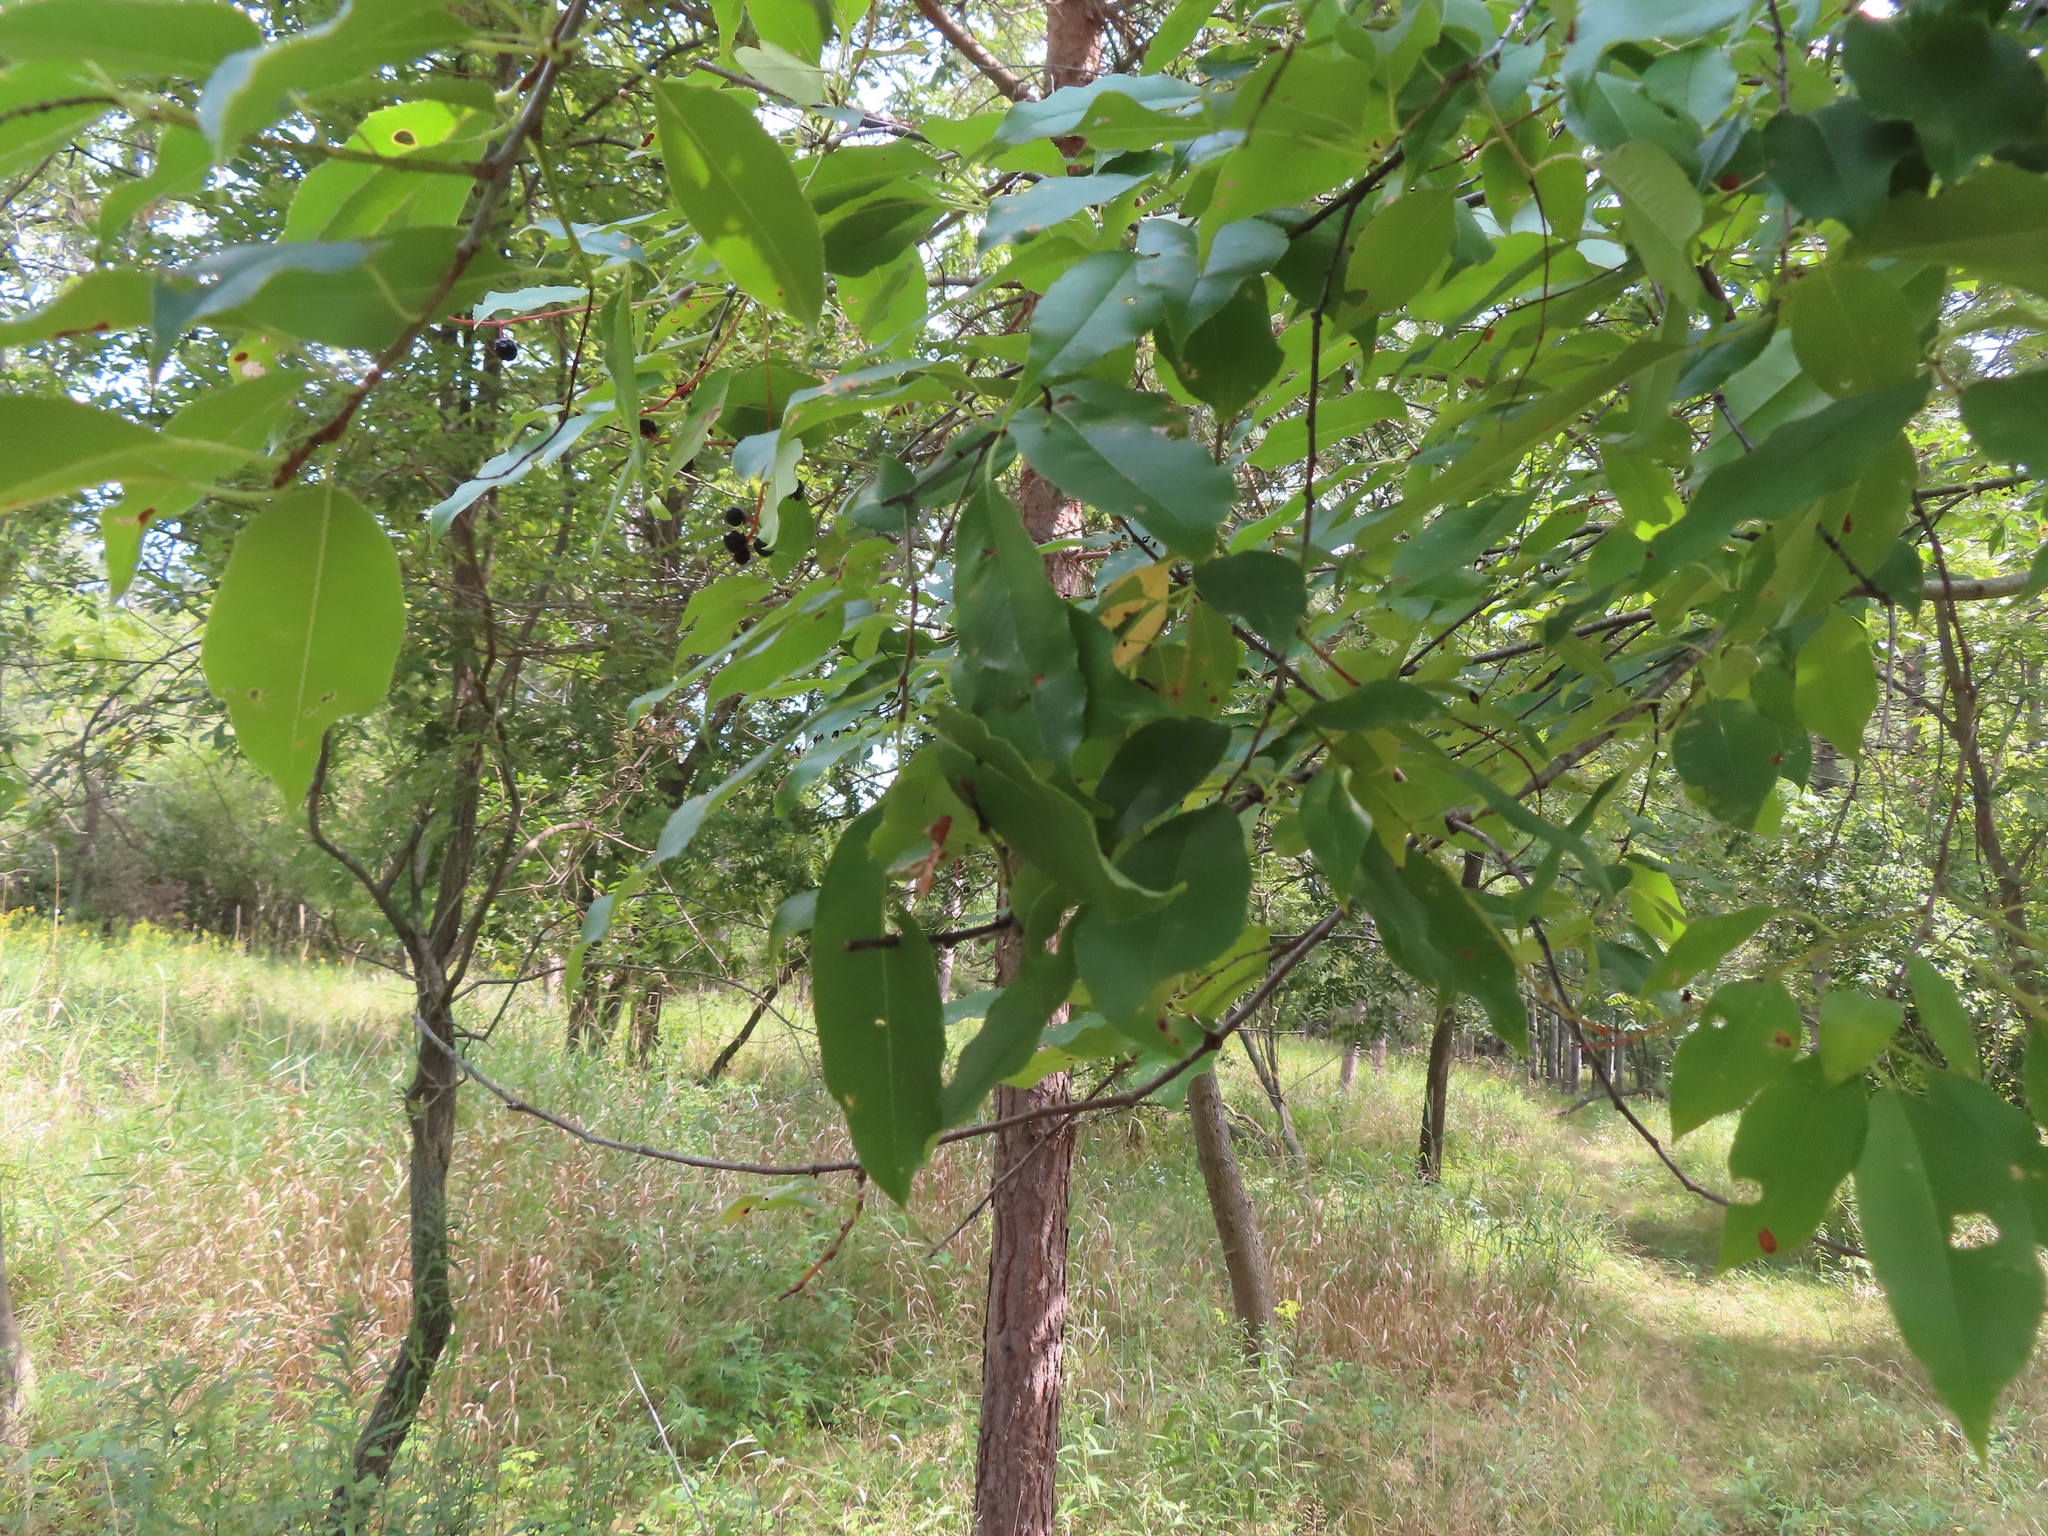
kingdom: Plantae
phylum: Tracheophyta
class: Magnoliopsida
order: Rosales
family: Rosaceae
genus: Prunus
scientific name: Prunus serotina
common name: Black cherry
